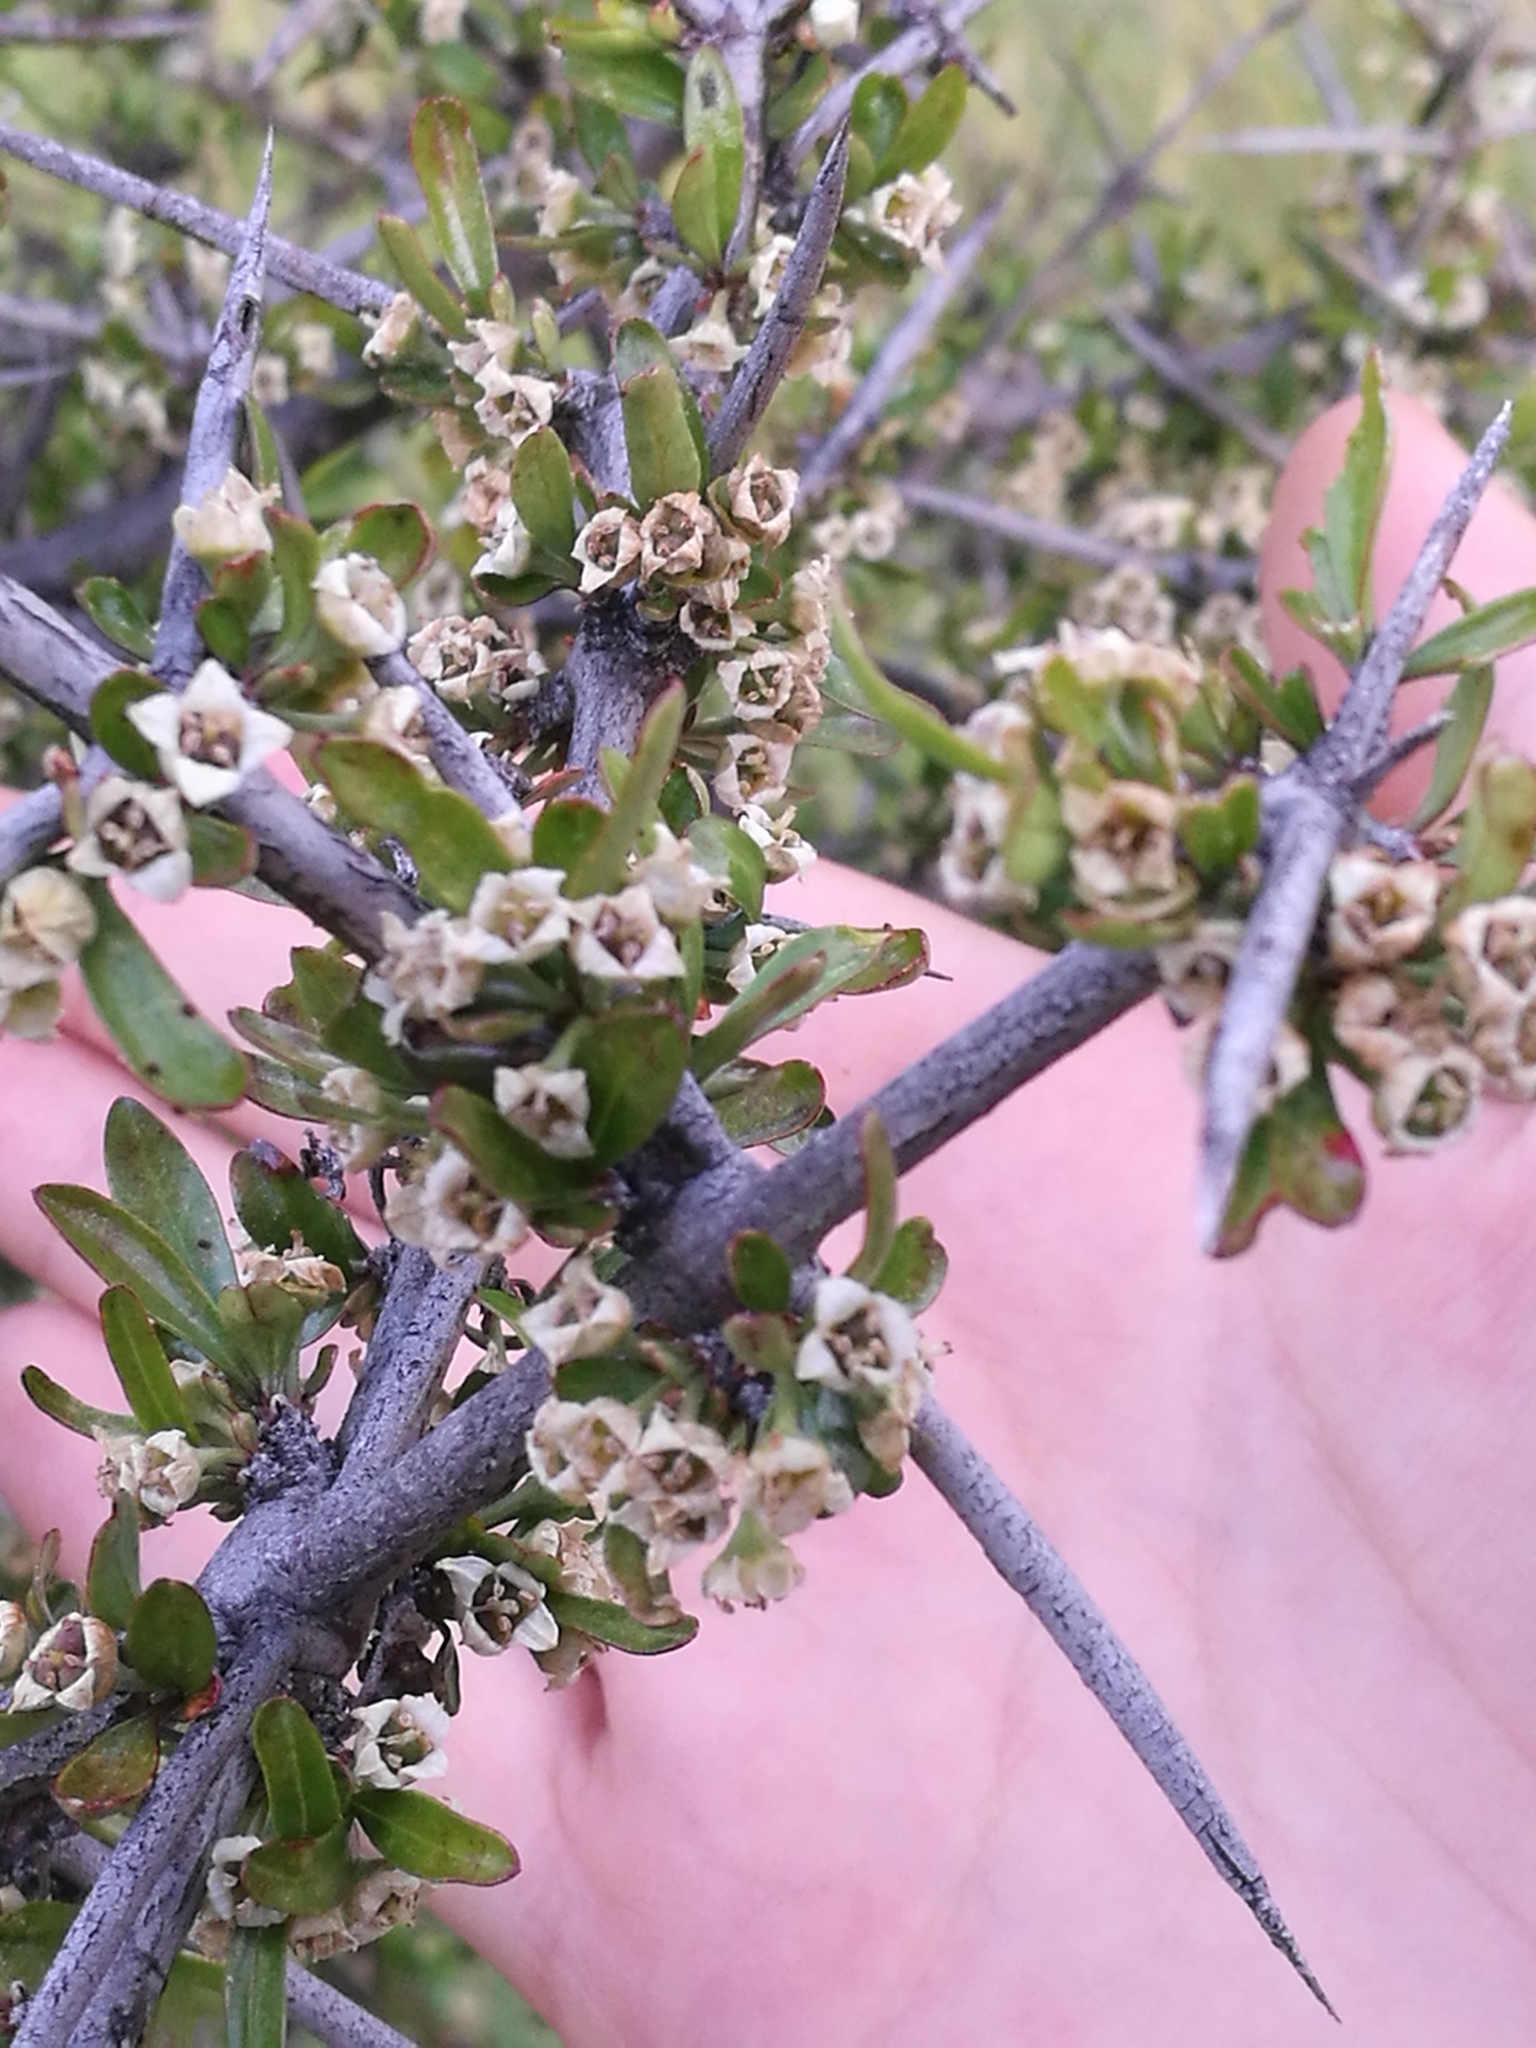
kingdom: Plantae
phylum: Tracheophyta
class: Magnoliopsida
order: Rosales
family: Rhamnaceae
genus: Discaria
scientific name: Discaria toumatou
